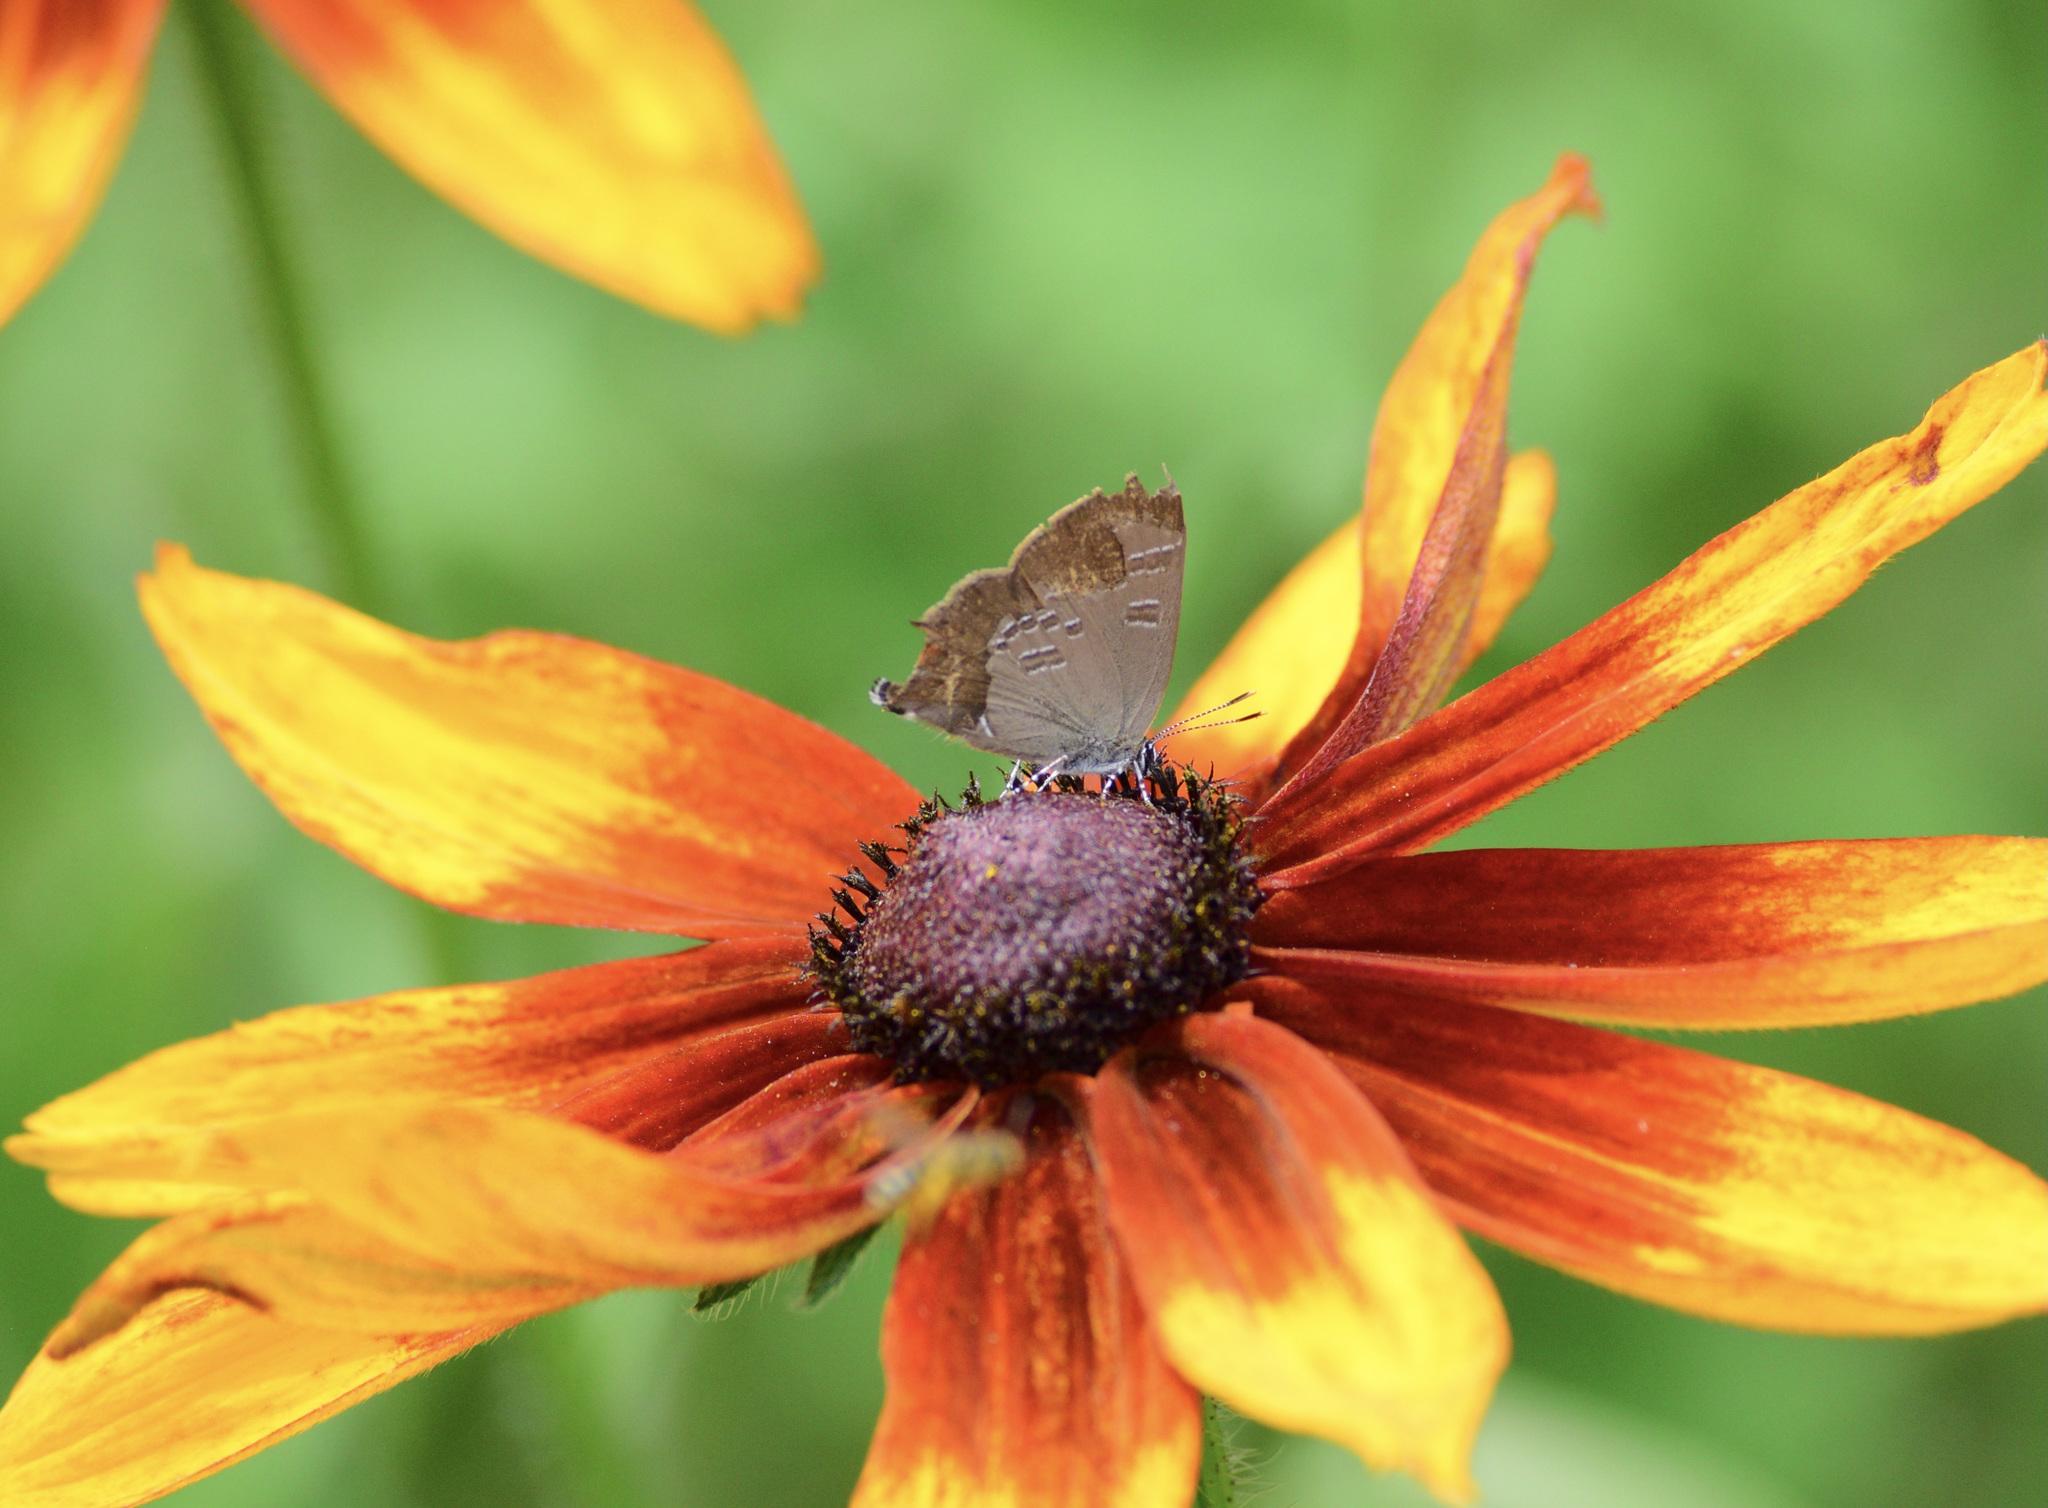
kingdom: Animalia
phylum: Arthropoda
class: Insecta
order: Lepidoptera
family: Lycaenidae
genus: Satyrium
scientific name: Satyrium calanus
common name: Banded hairstreak
